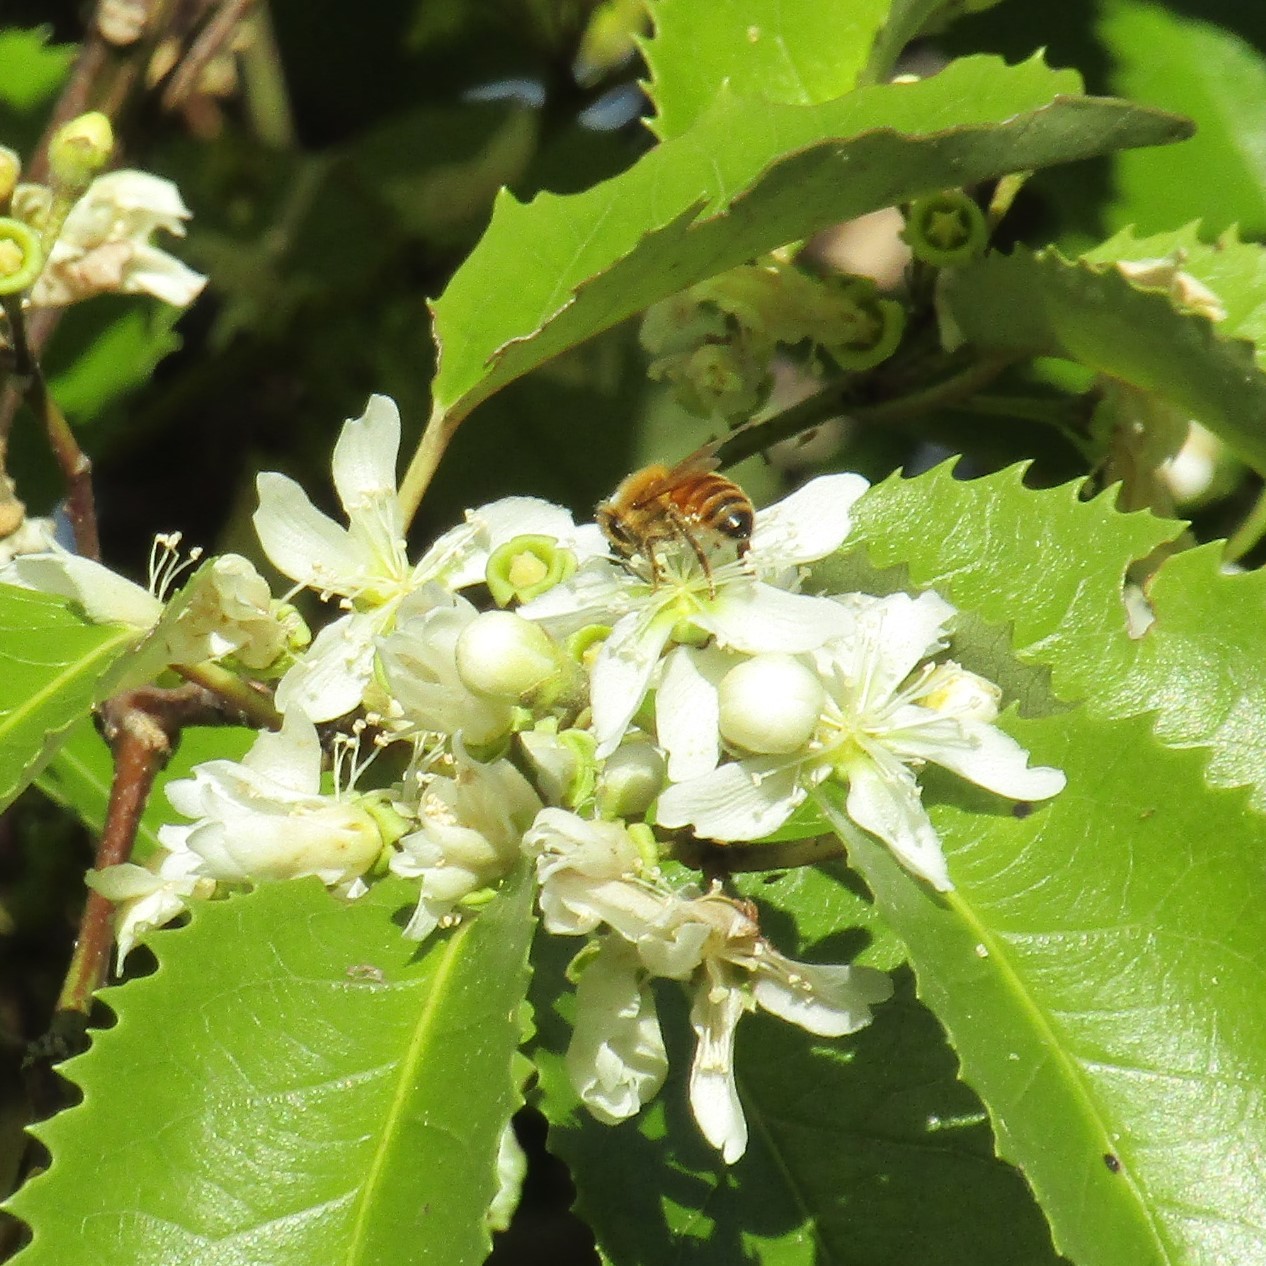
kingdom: Animalia
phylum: Arthropoda
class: Insecta
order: Hymenoptera
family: Apidae
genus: Apis
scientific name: Apis mellifera
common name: Honey bee
